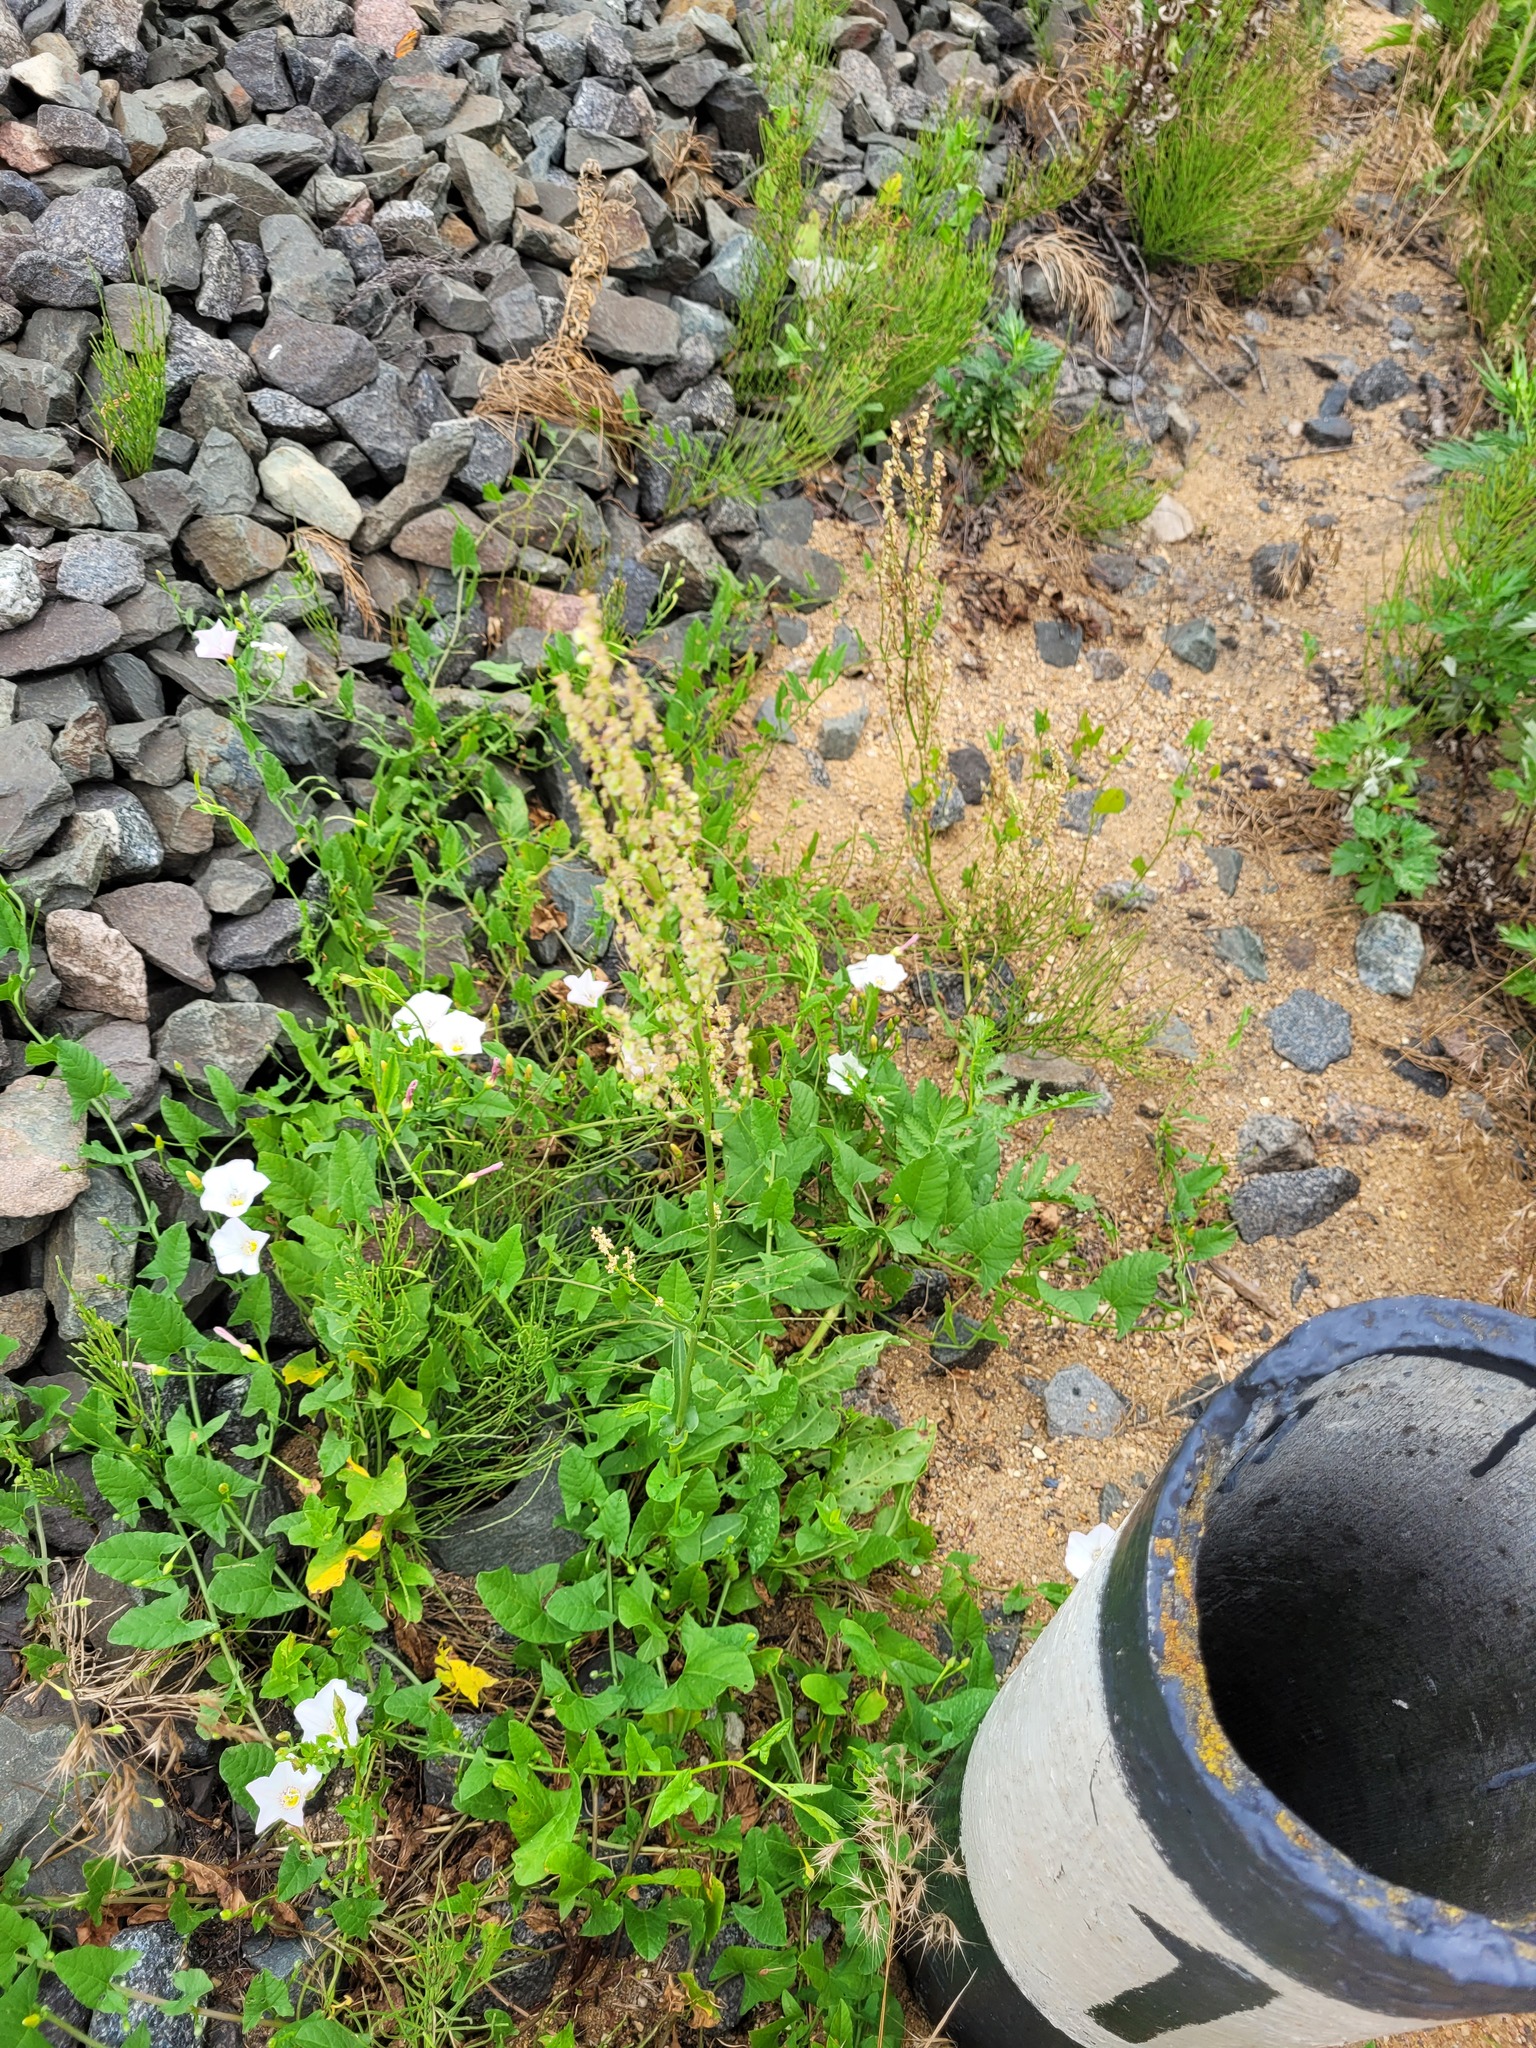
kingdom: Plantae
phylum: Tracheophyta
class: Magnoliopsida
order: Caryophyllales
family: Polygonaceae
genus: Rumex
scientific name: Rumex acetosa
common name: Garden sorrel
